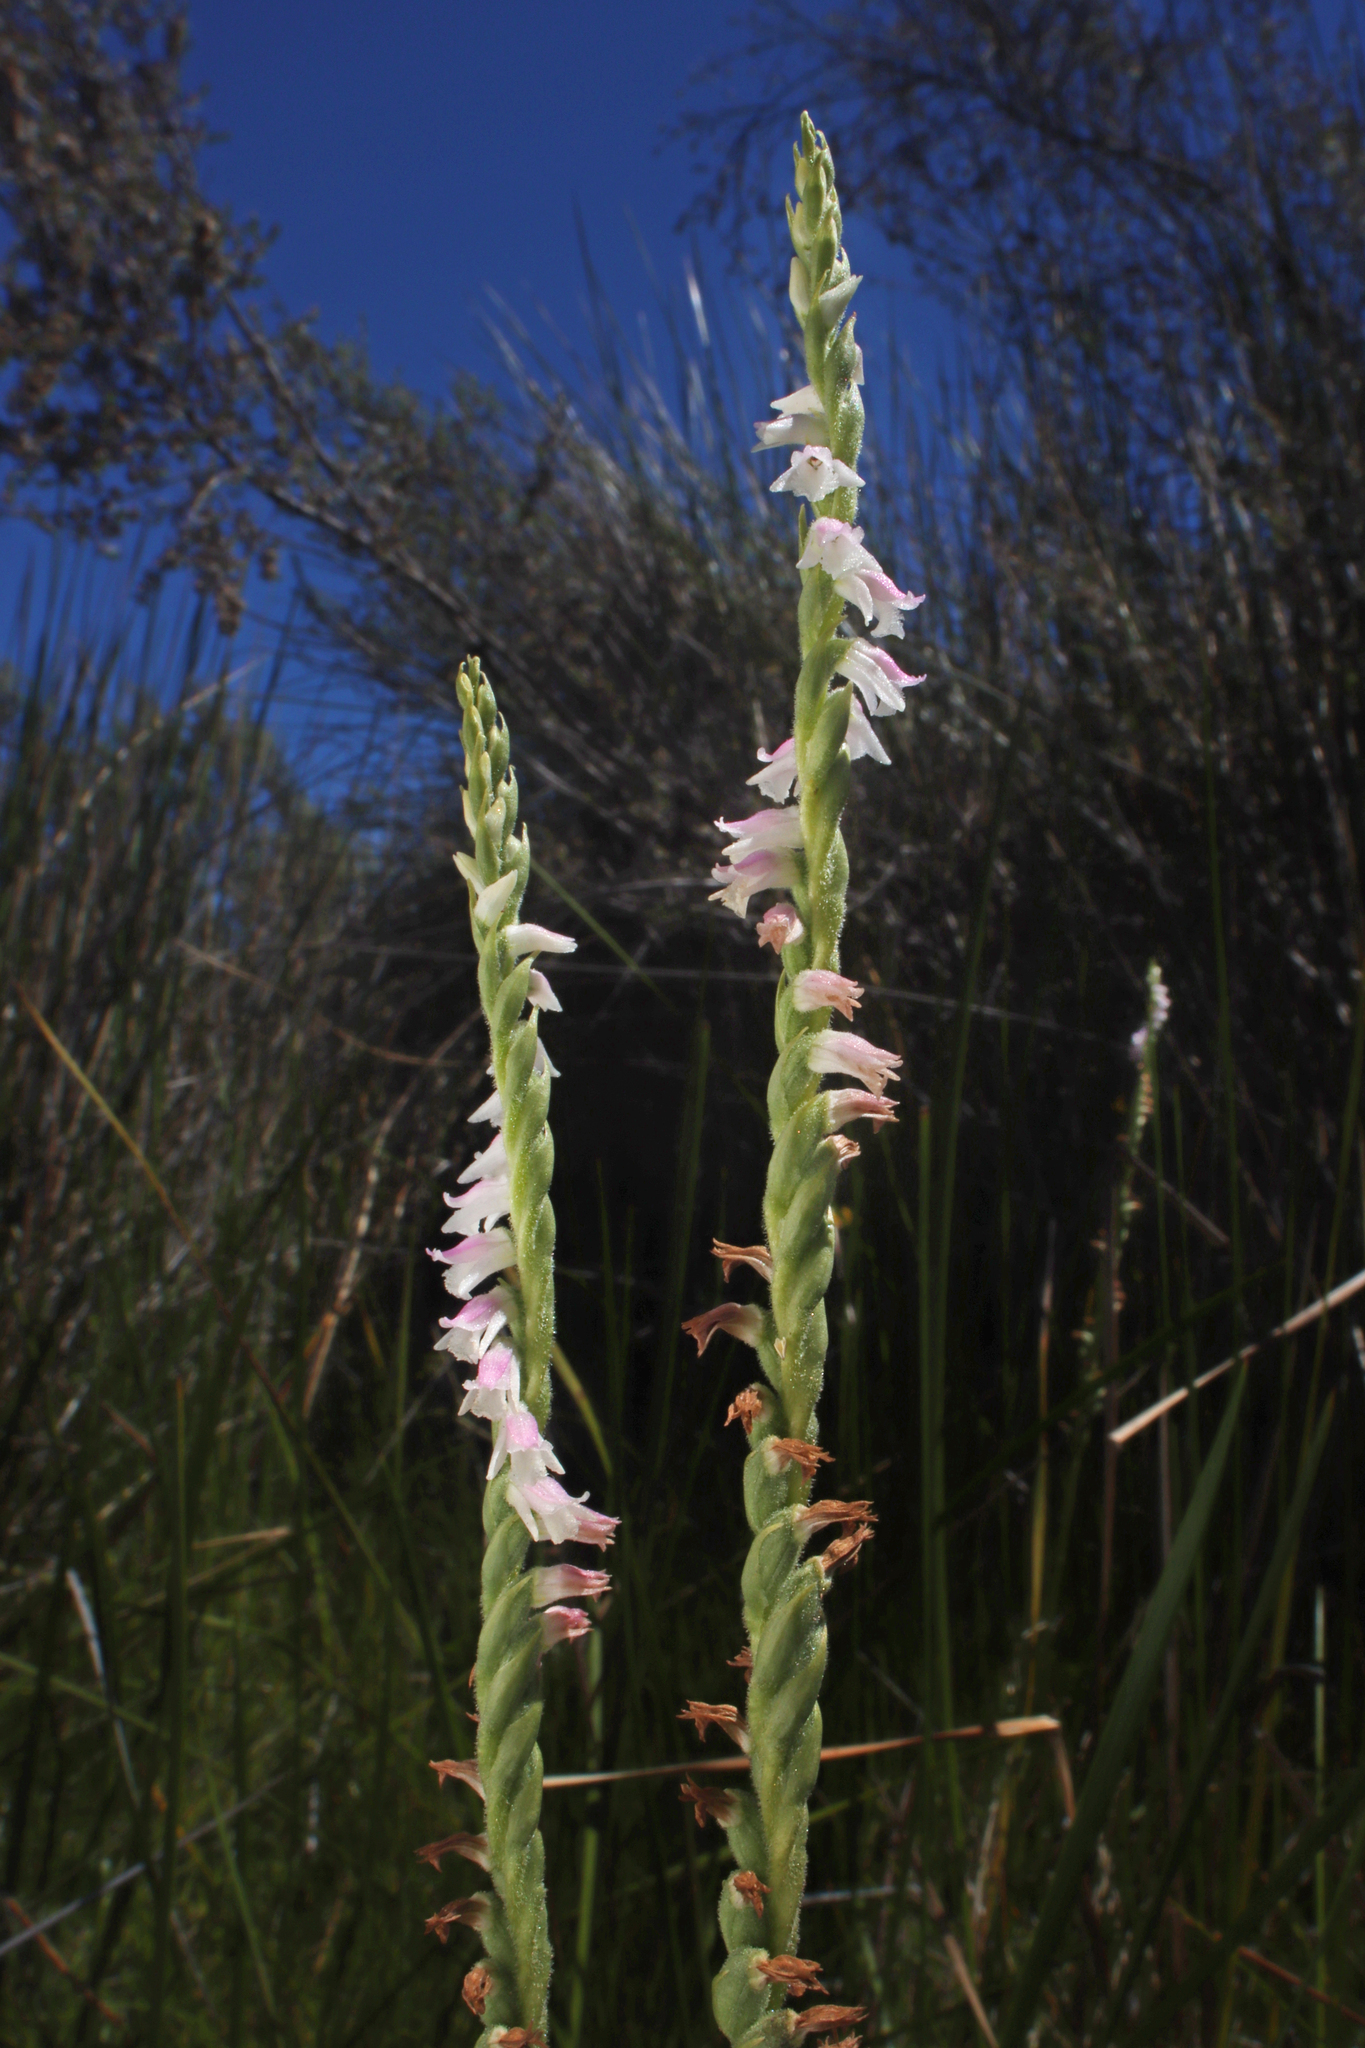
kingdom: Plantae
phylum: Tracheophyta
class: Liliopsida
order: Asparagales
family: Orchidaceae
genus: Spiranthes
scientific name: Spiranthes australis
